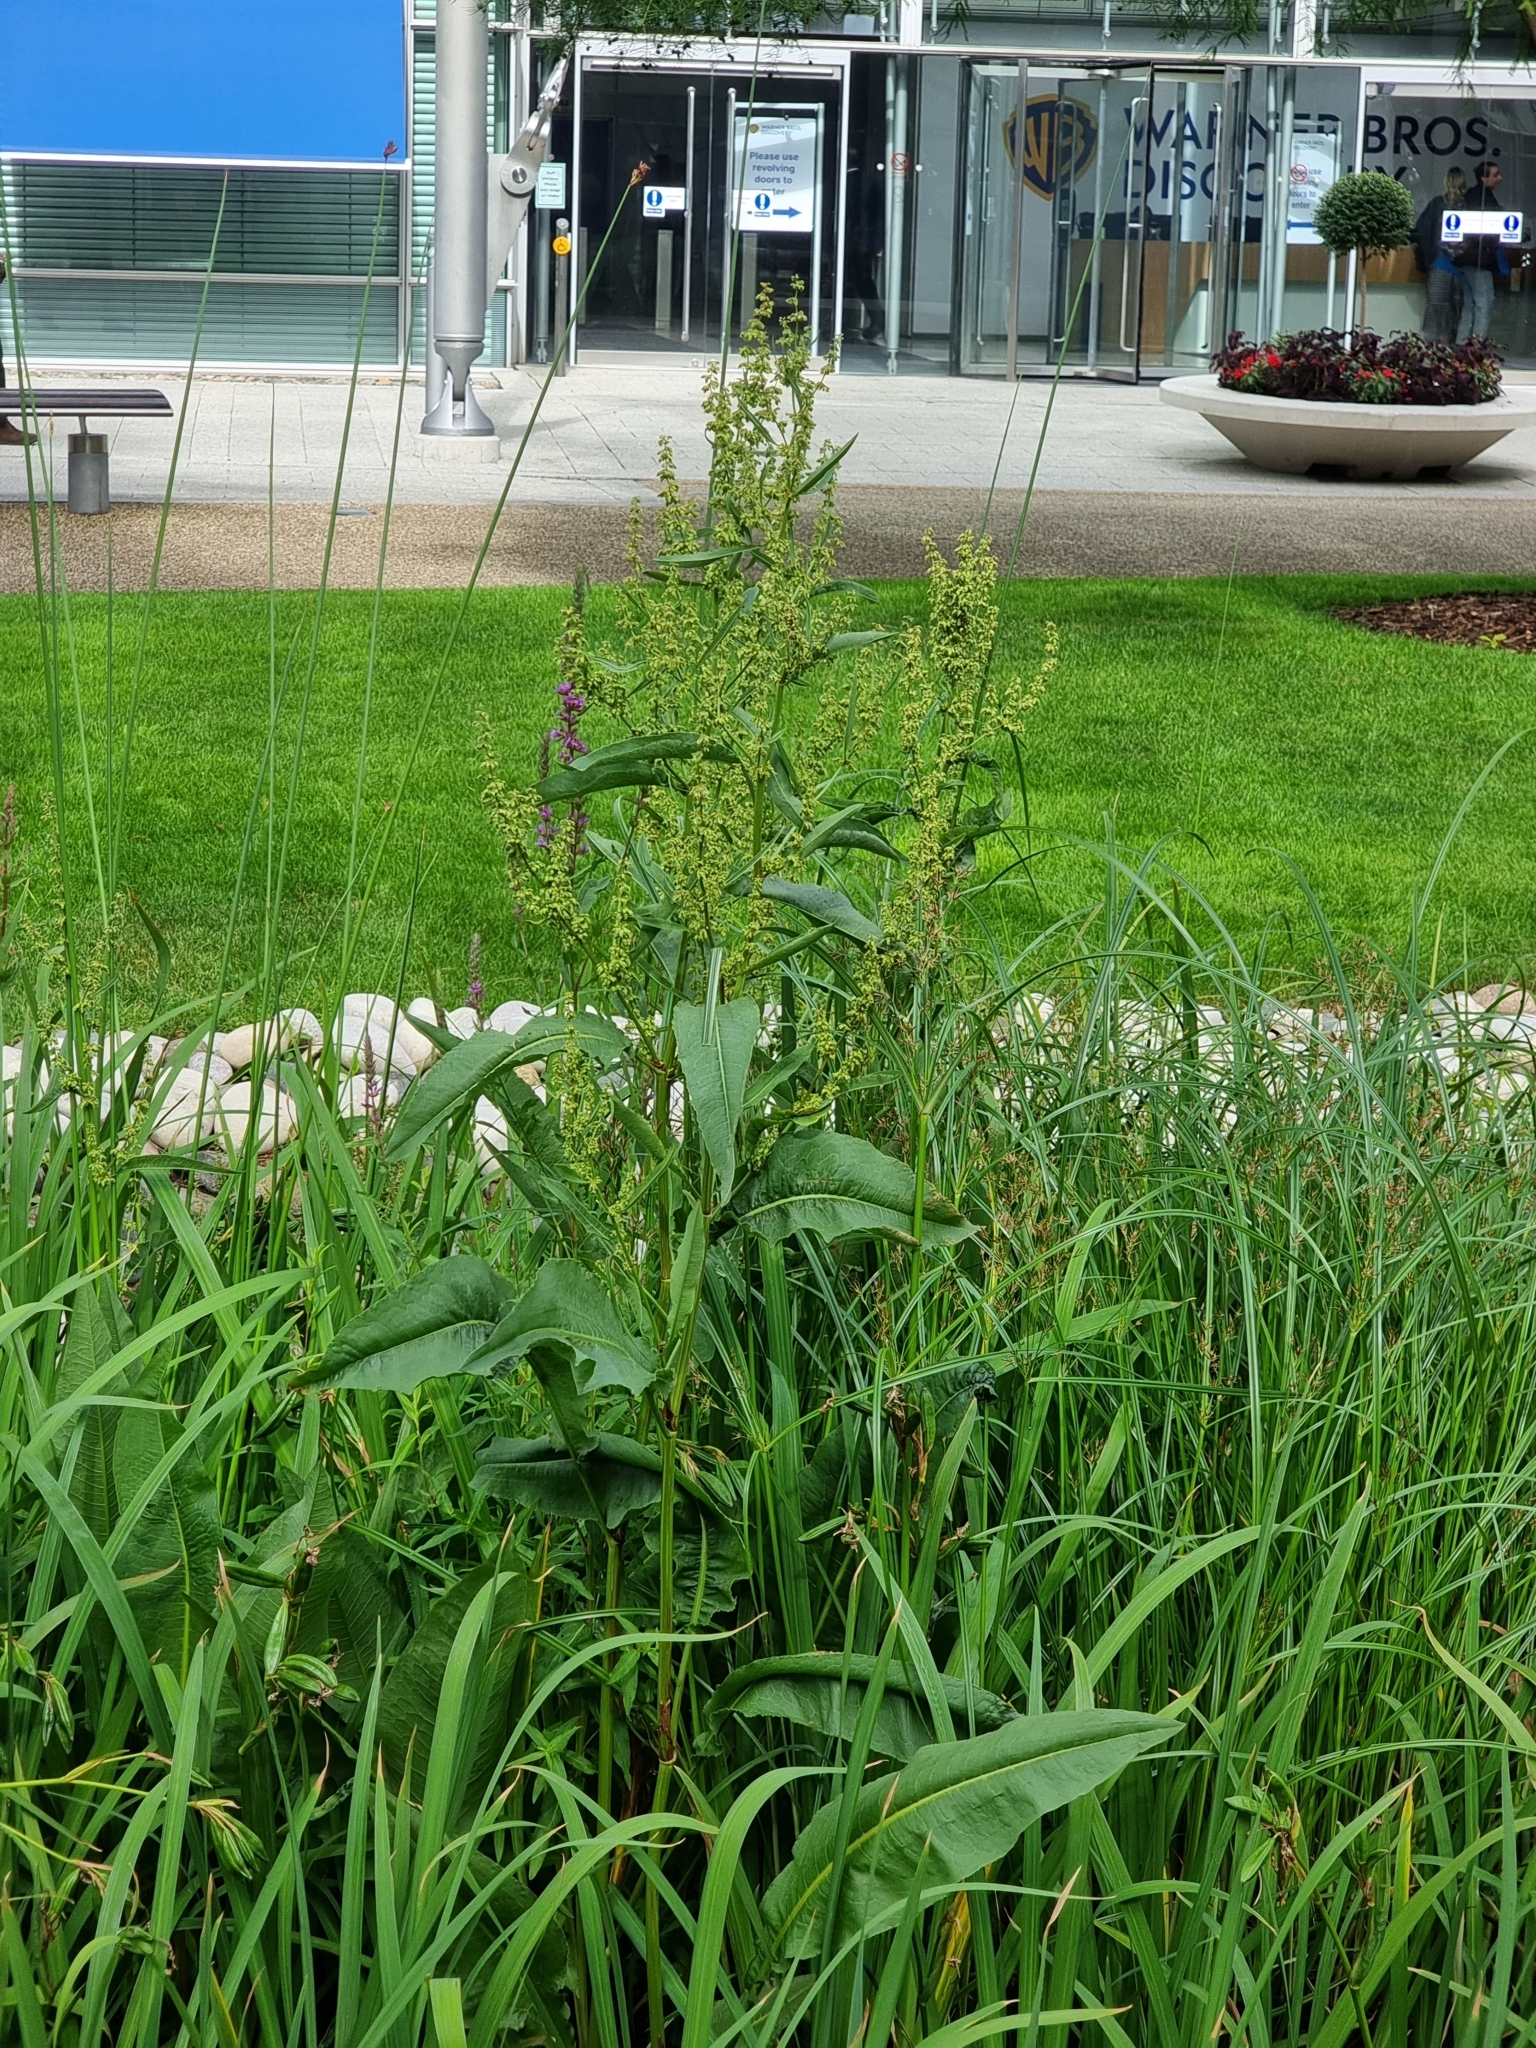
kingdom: Plantae
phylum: Tracheophyta
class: Magnoliopsida
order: Caryophyllales
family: Polygonaceae
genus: Rumex
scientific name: Rumex hydrolapathum
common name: Water dock
